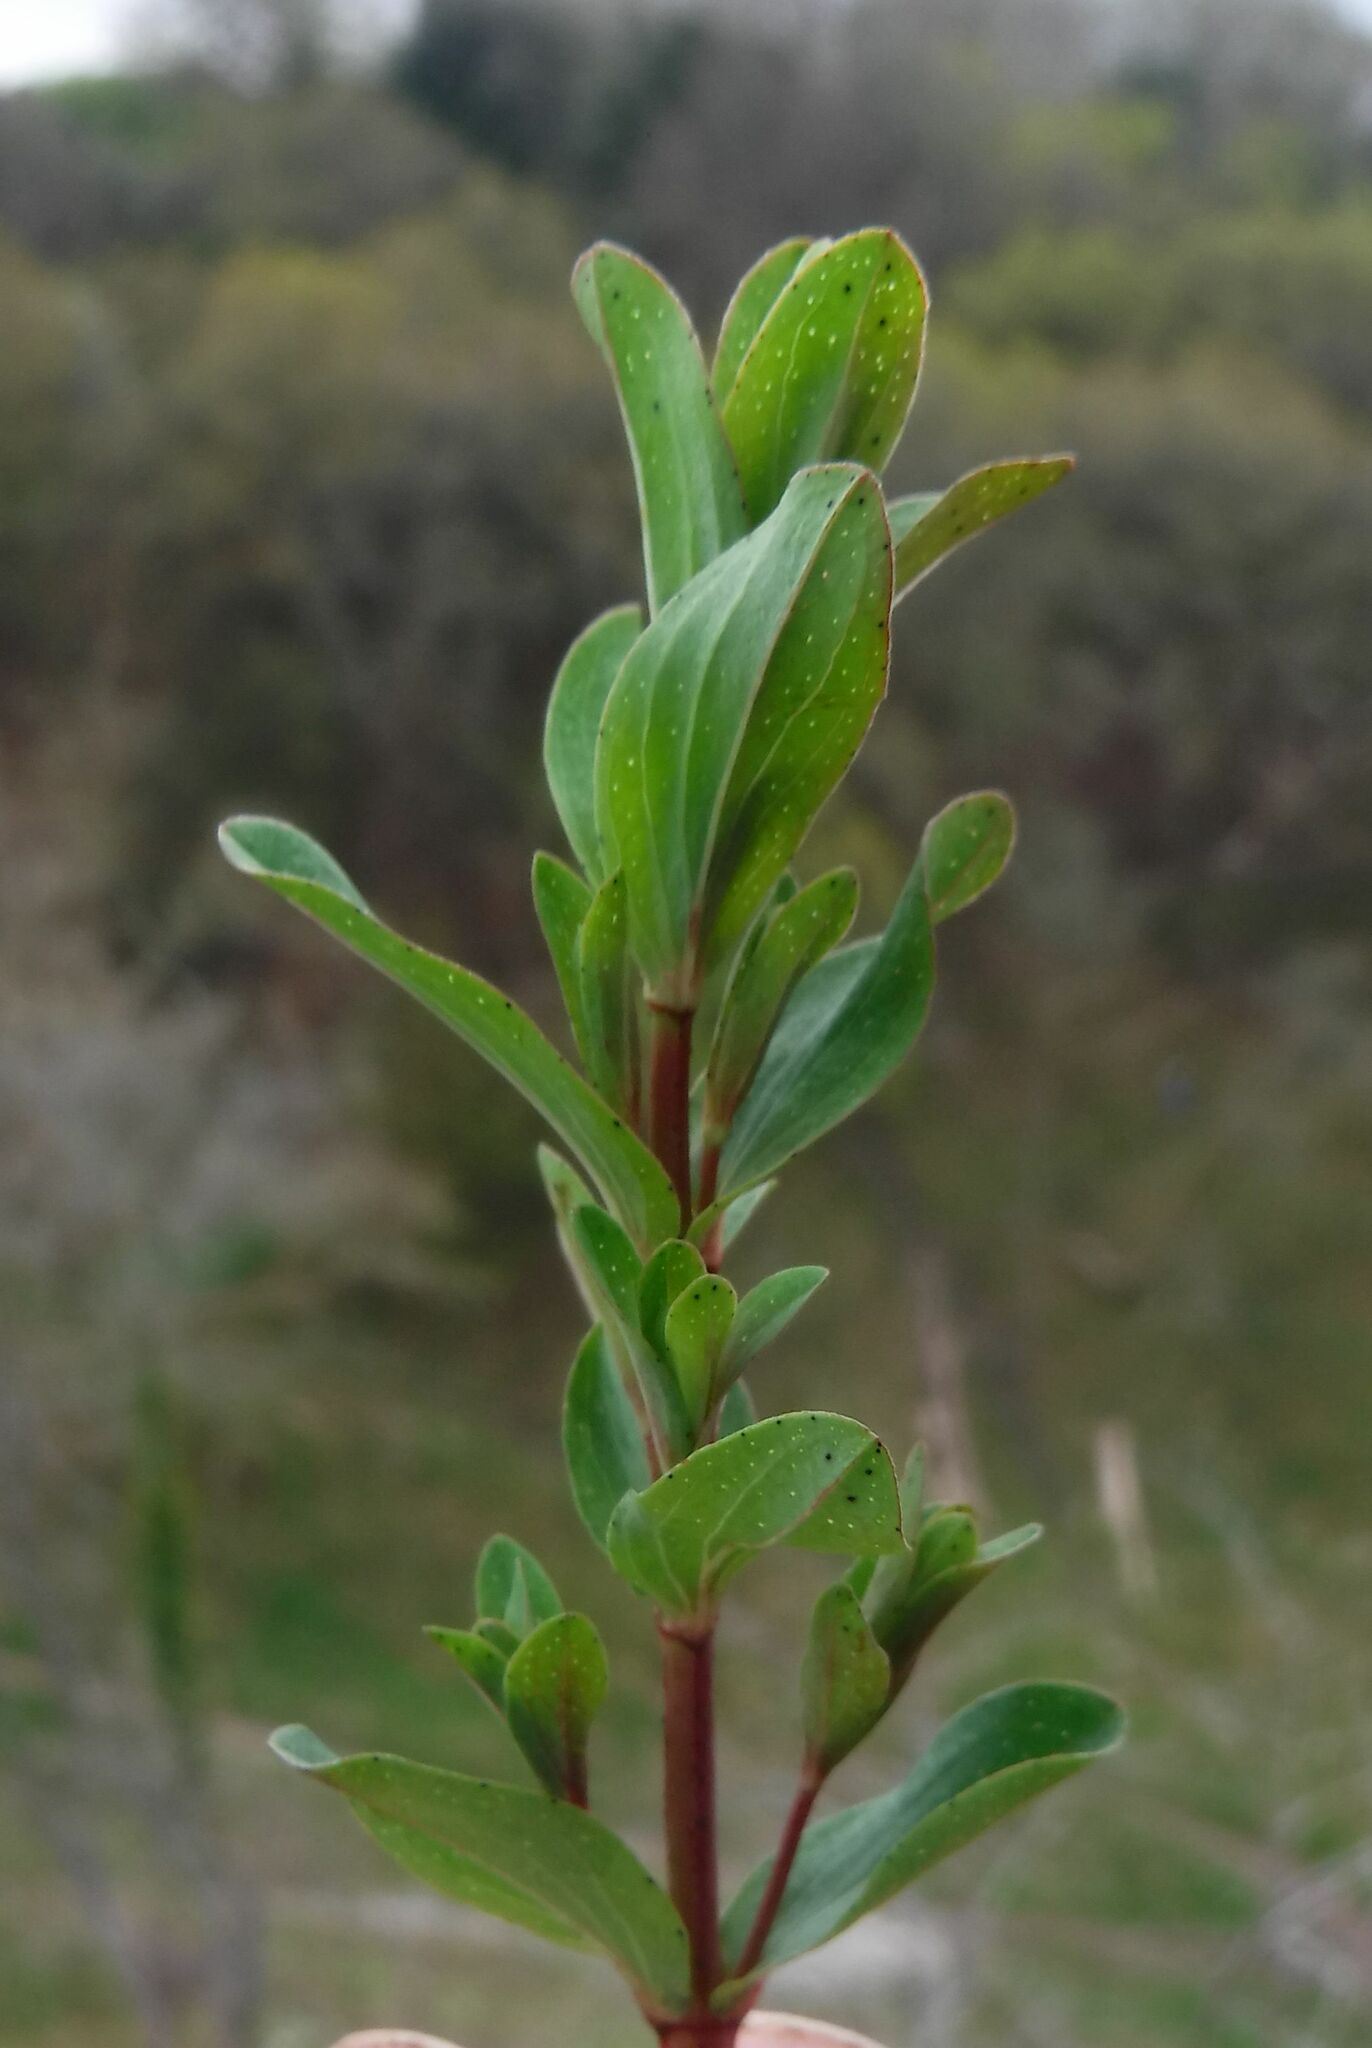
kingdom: Plantae
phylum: Tracheophyta
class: Magnoliopsida
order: Malpighiales
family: Hypericaceae
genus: Hypericum
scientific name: Hypericum perforatum
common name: Common st. johnswort
